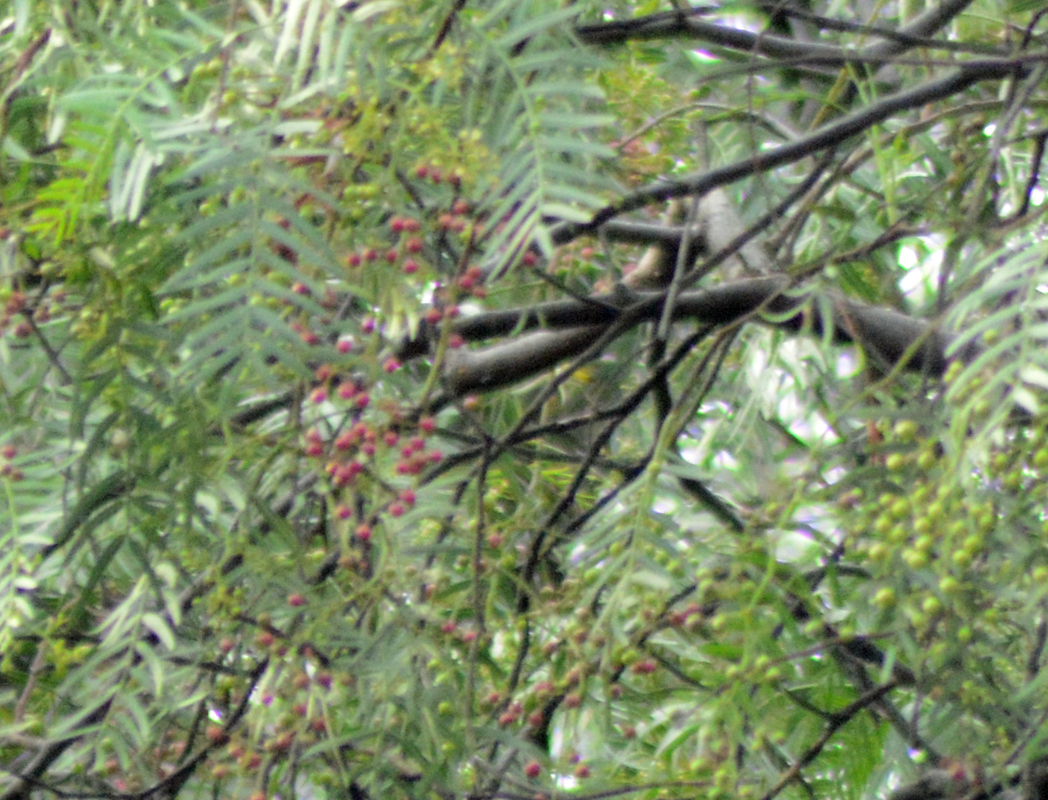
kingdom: Plantae
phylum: Tracheophyta
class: Magnoliopsida
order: Sapindales
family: Anacardiaceae
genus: Schinus
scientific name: Schinus molle
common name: Peruvian peppertree
